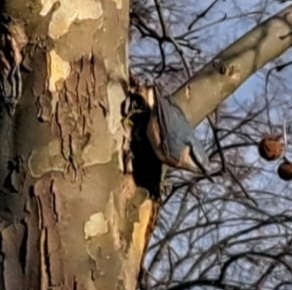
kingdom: Animalia
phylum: Chordata
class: Aves
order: Passeriformes
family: Sittidae
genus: Sitta
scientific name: Sitta europaea
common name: Eurasian nuthatch
